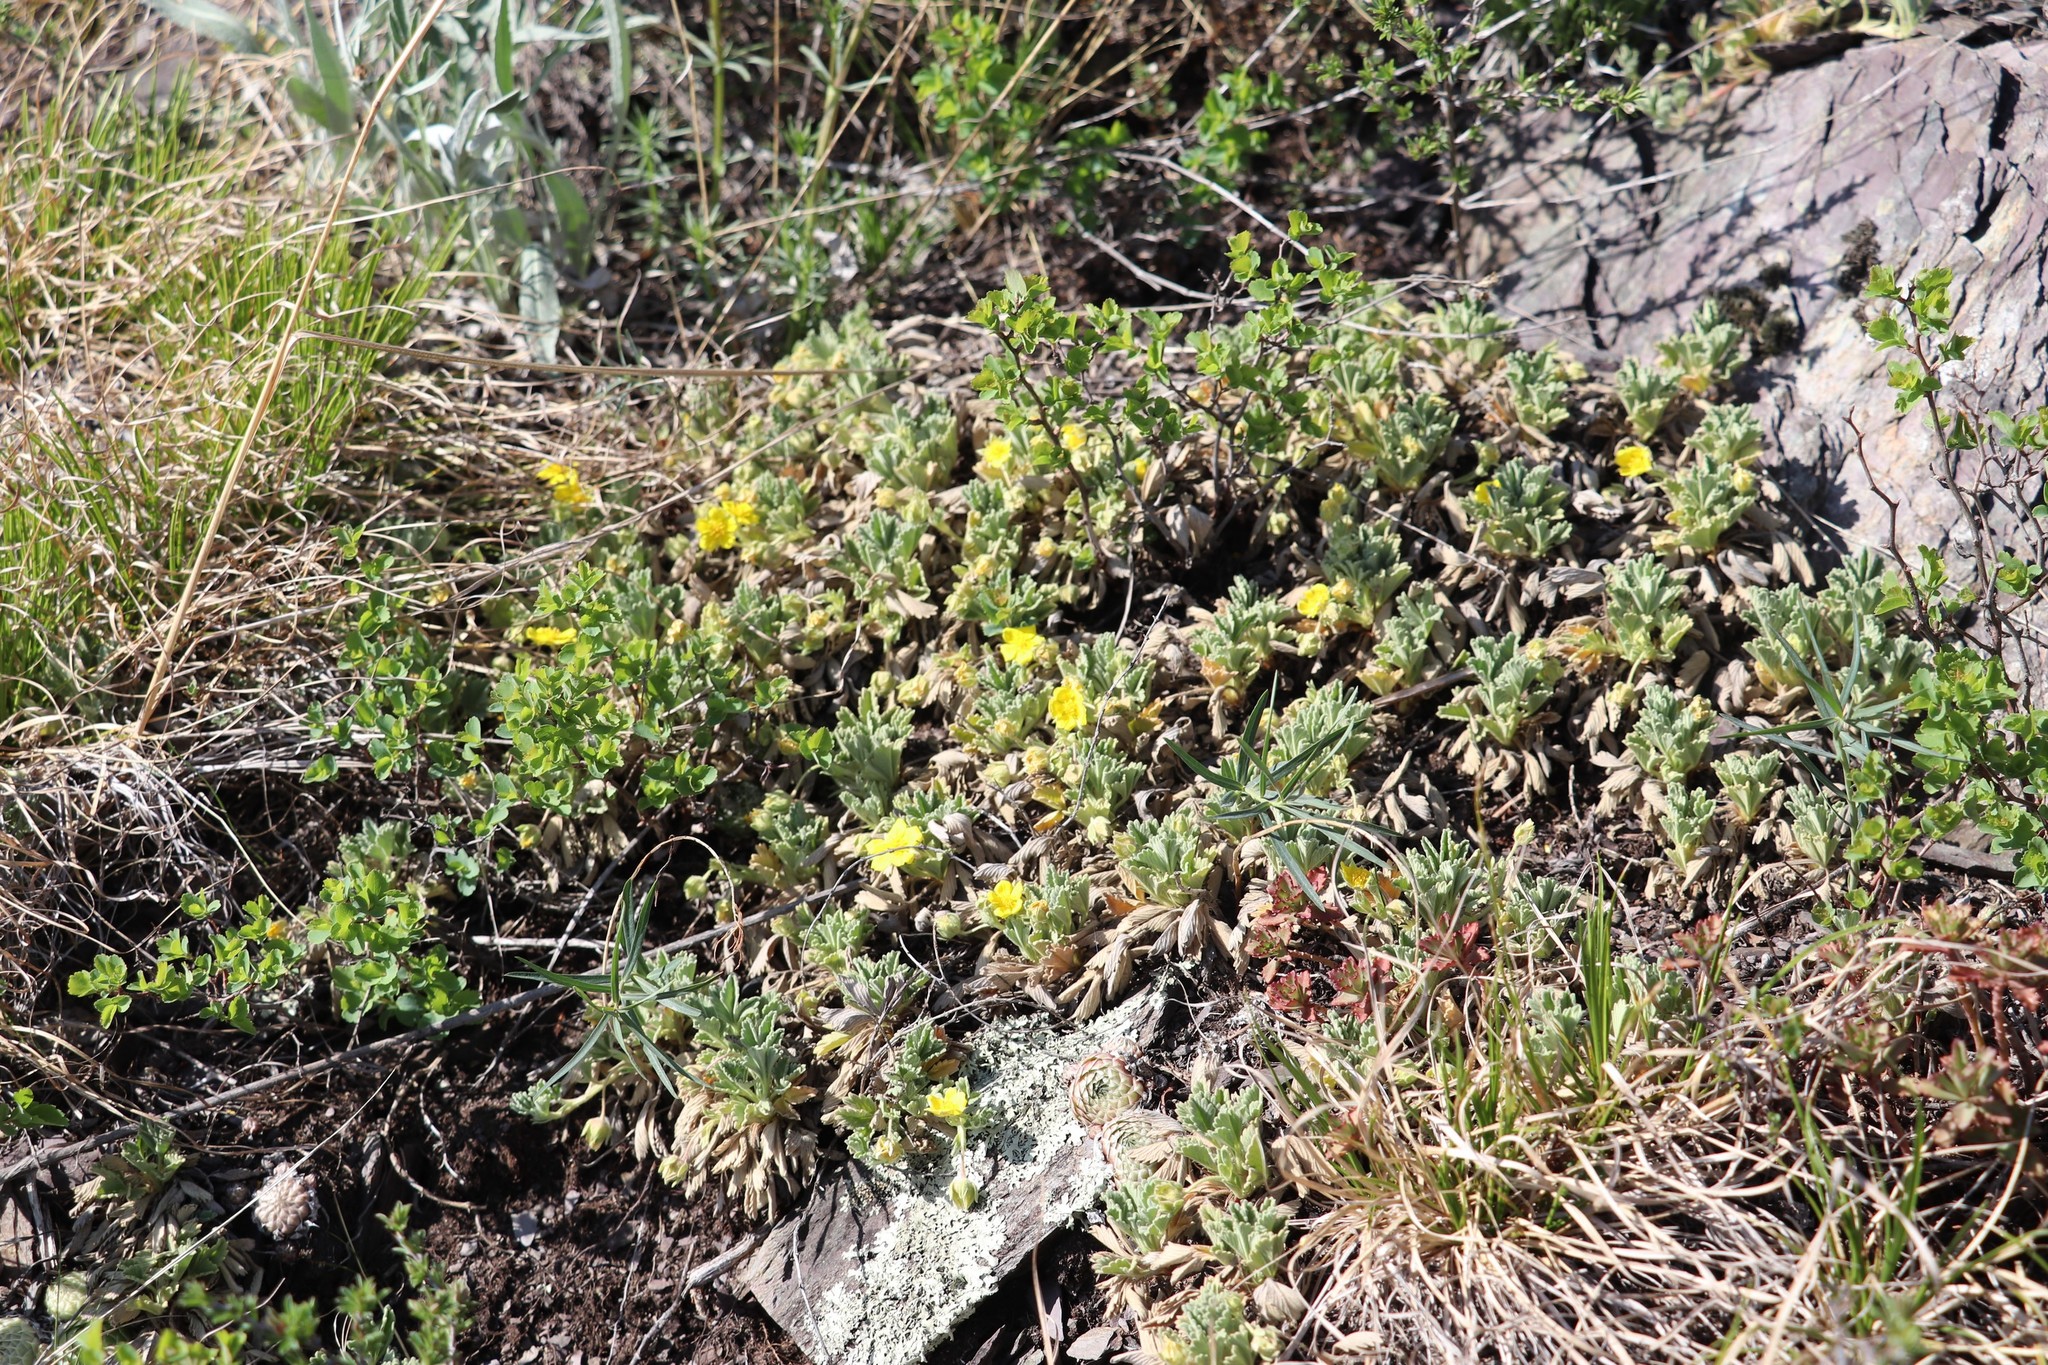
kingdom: Plantae
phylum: Tracheophyta
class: Magnoliopsida
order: Rosales
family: Rosaceae
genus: Potentilla
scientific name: Potentilla acaulis
